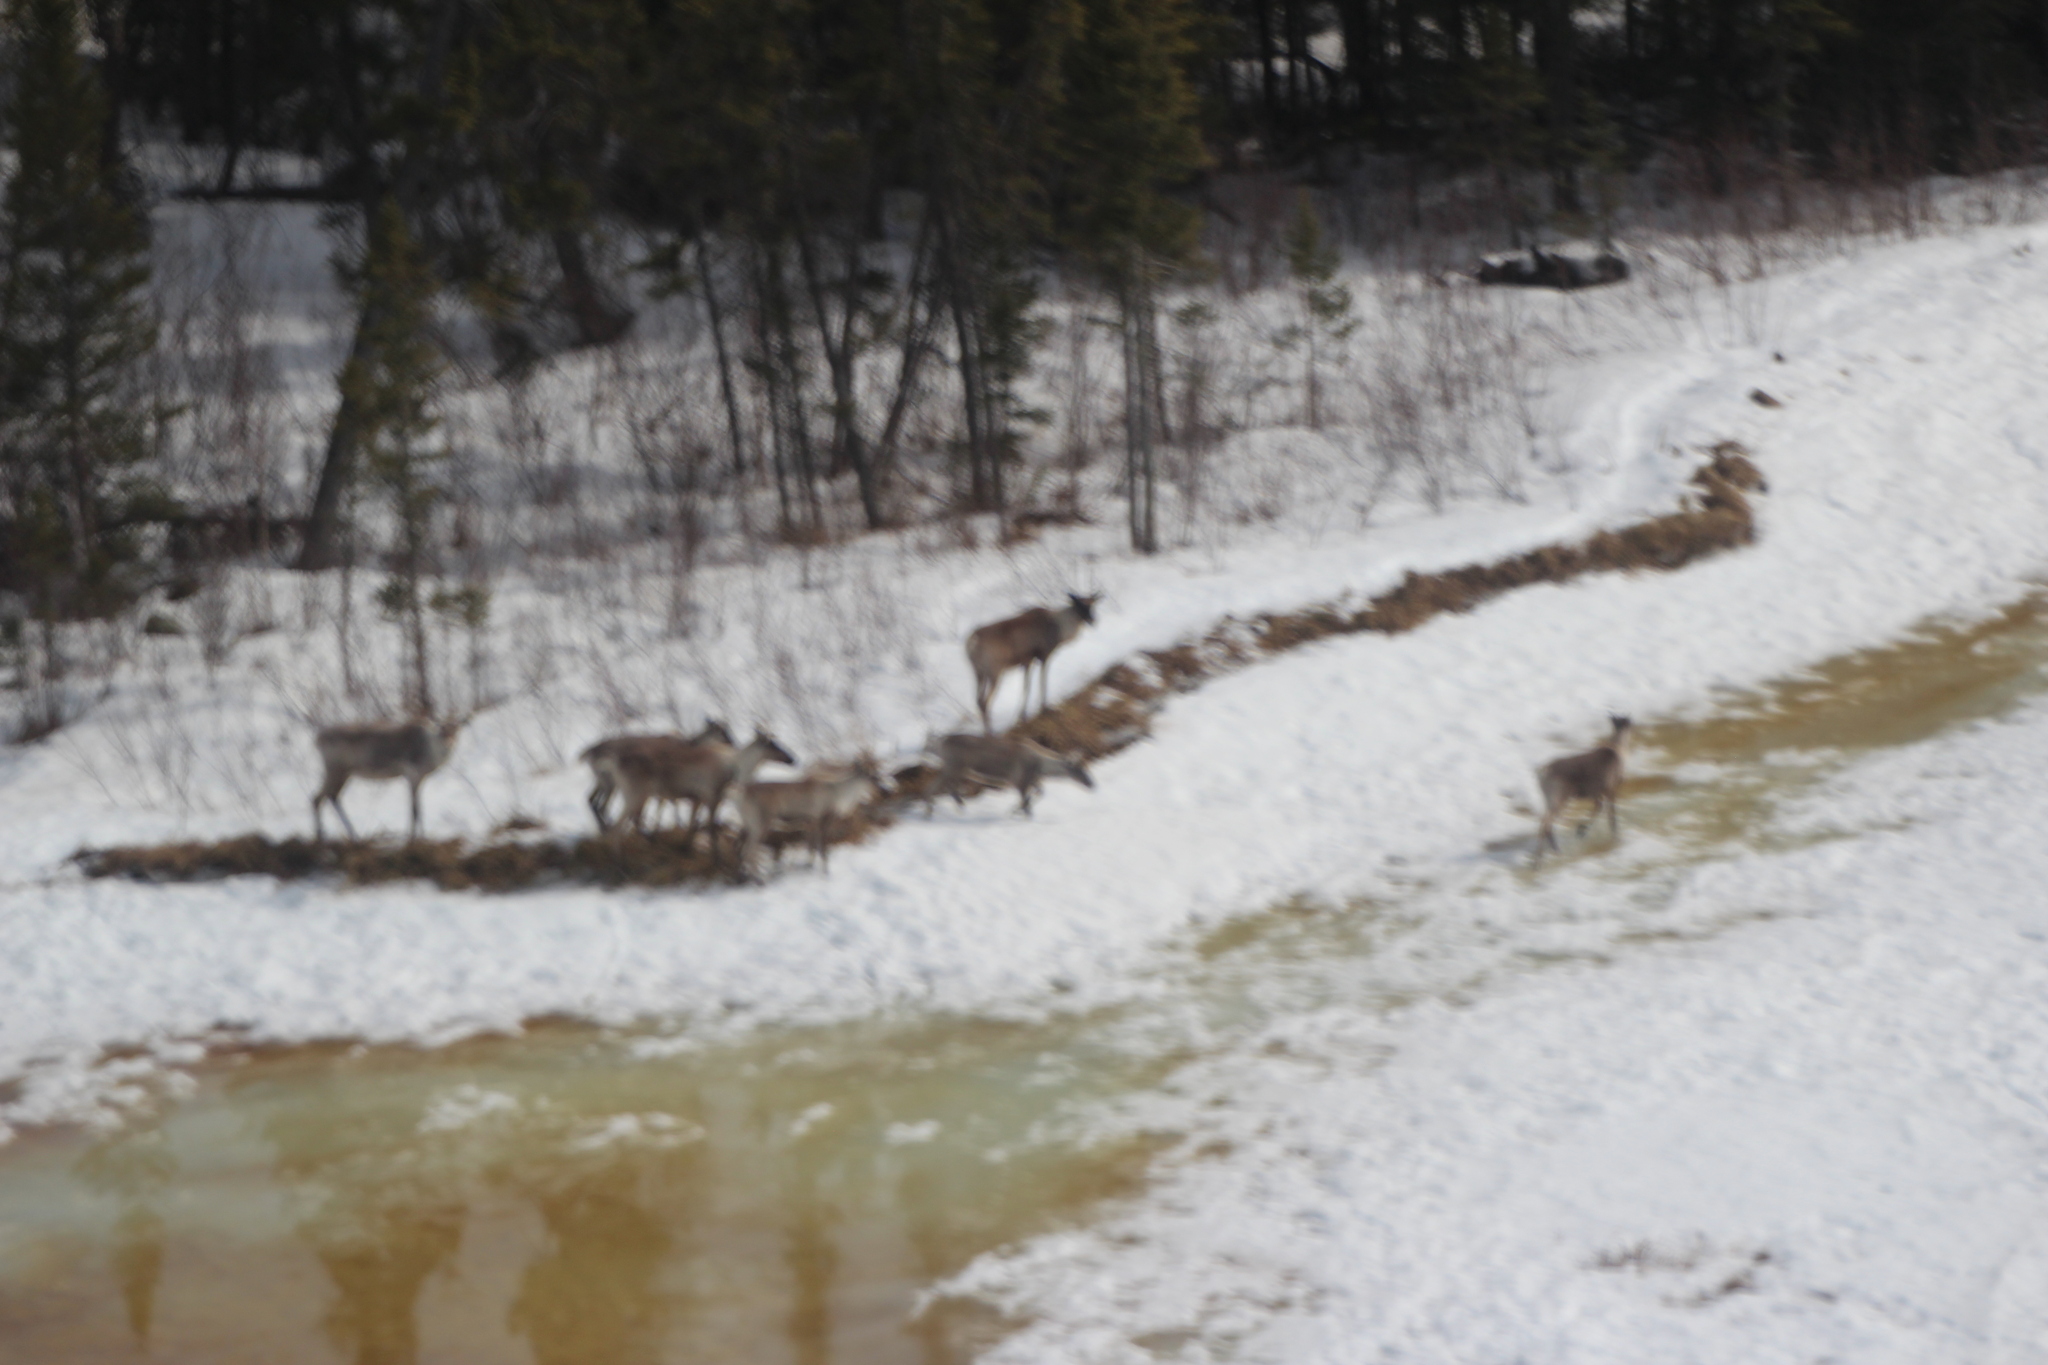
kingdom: Animalia
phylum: Chordata
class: Mammalia
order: Artiodactyla
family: Cervidae
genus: Rangifer
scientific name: Rangifer tarandus
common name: Reindeer
